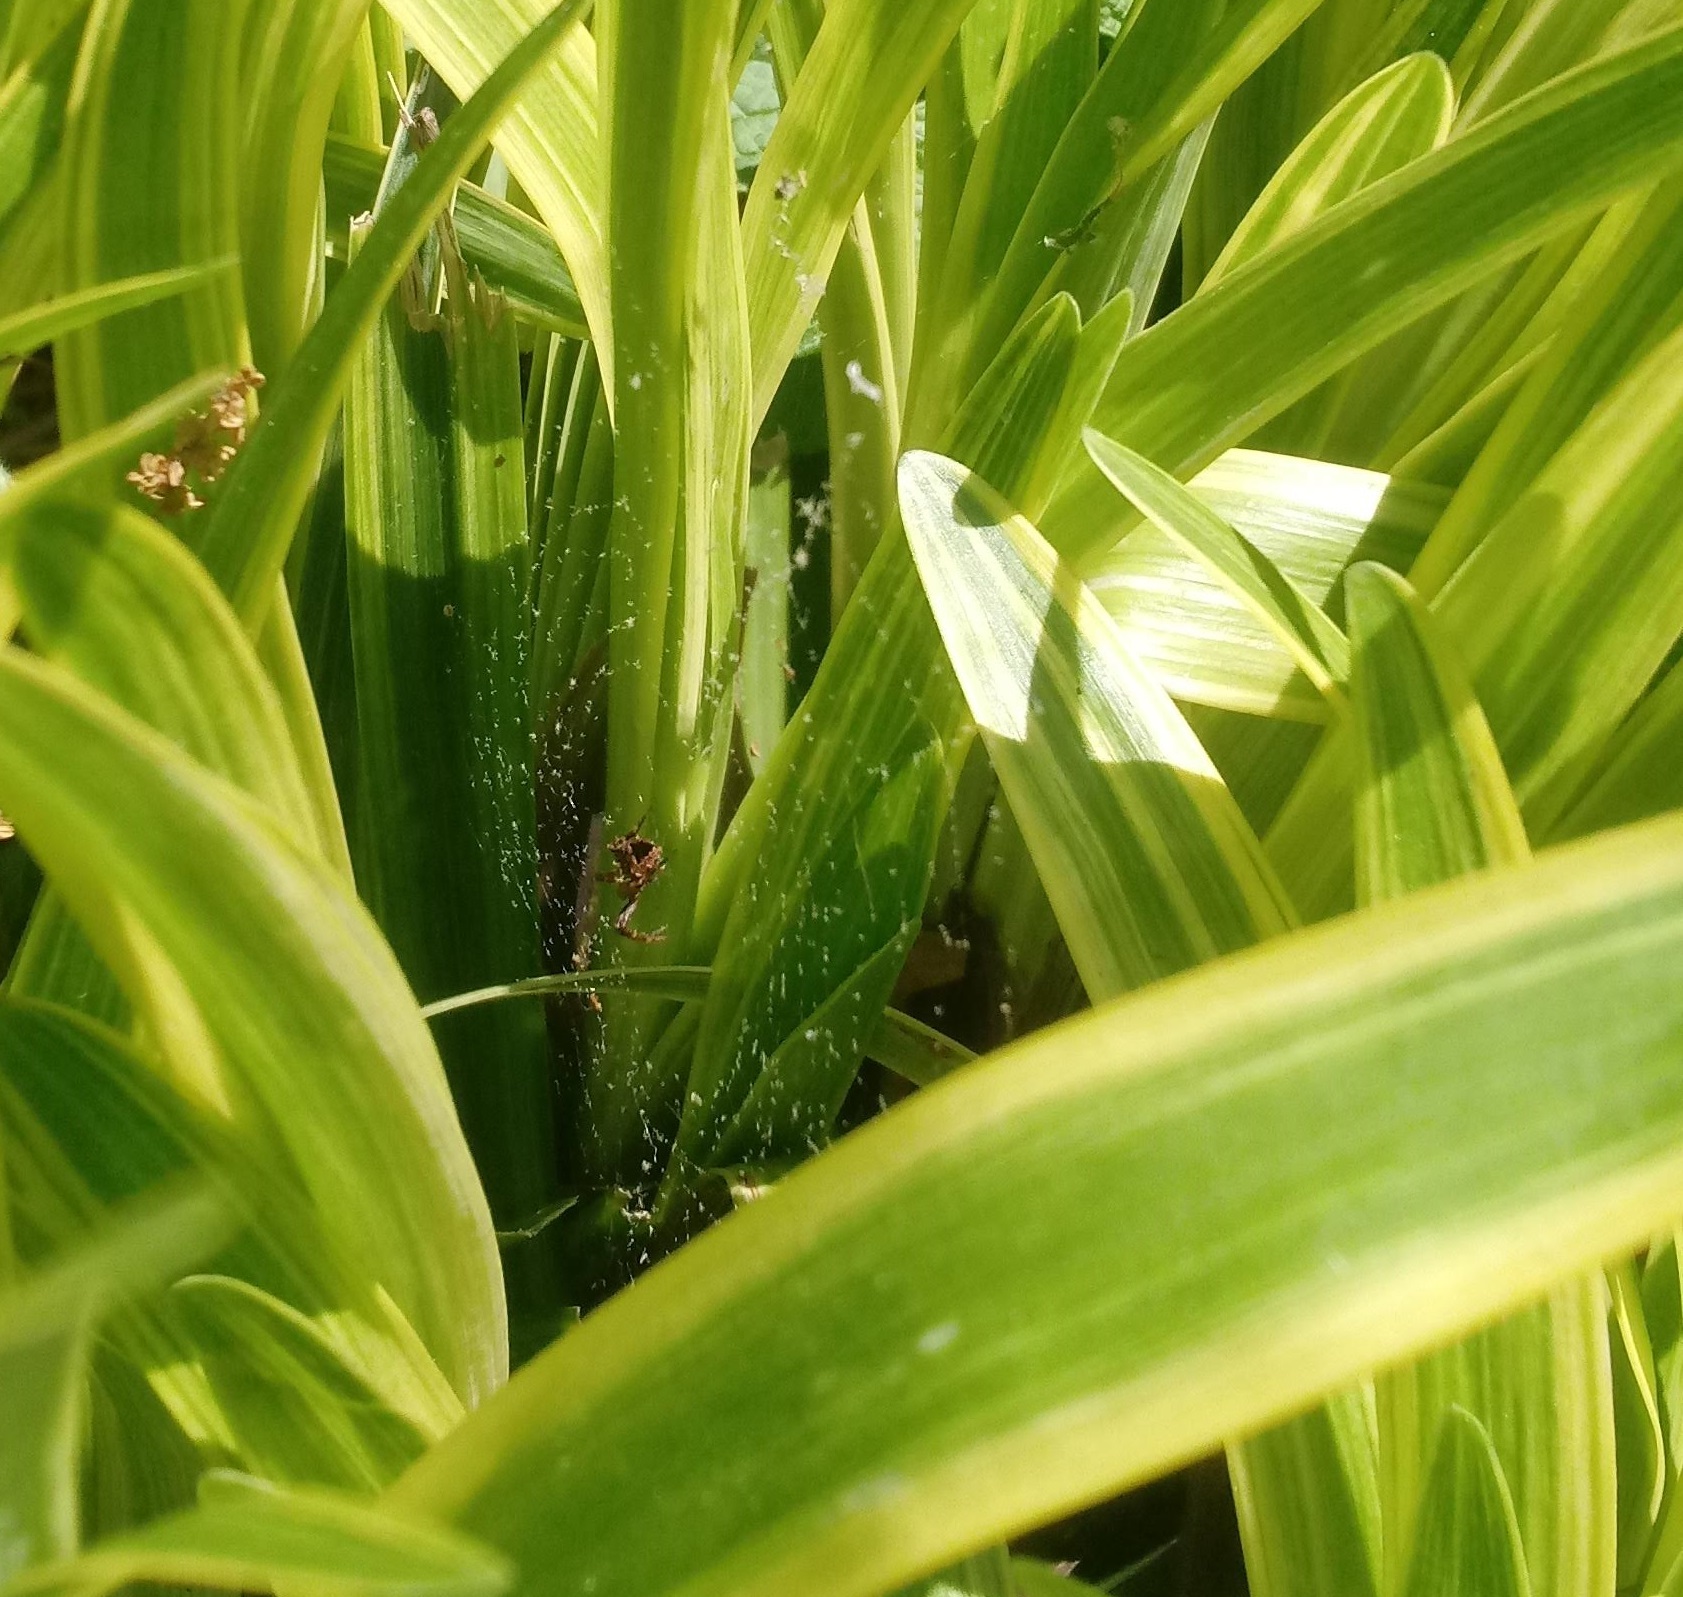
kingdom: Animalia
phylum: Arthropoda
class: Arachnida
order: Araneae
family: Araneidae
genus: Gea
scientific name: Gea heptagon
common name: Orb weavers
